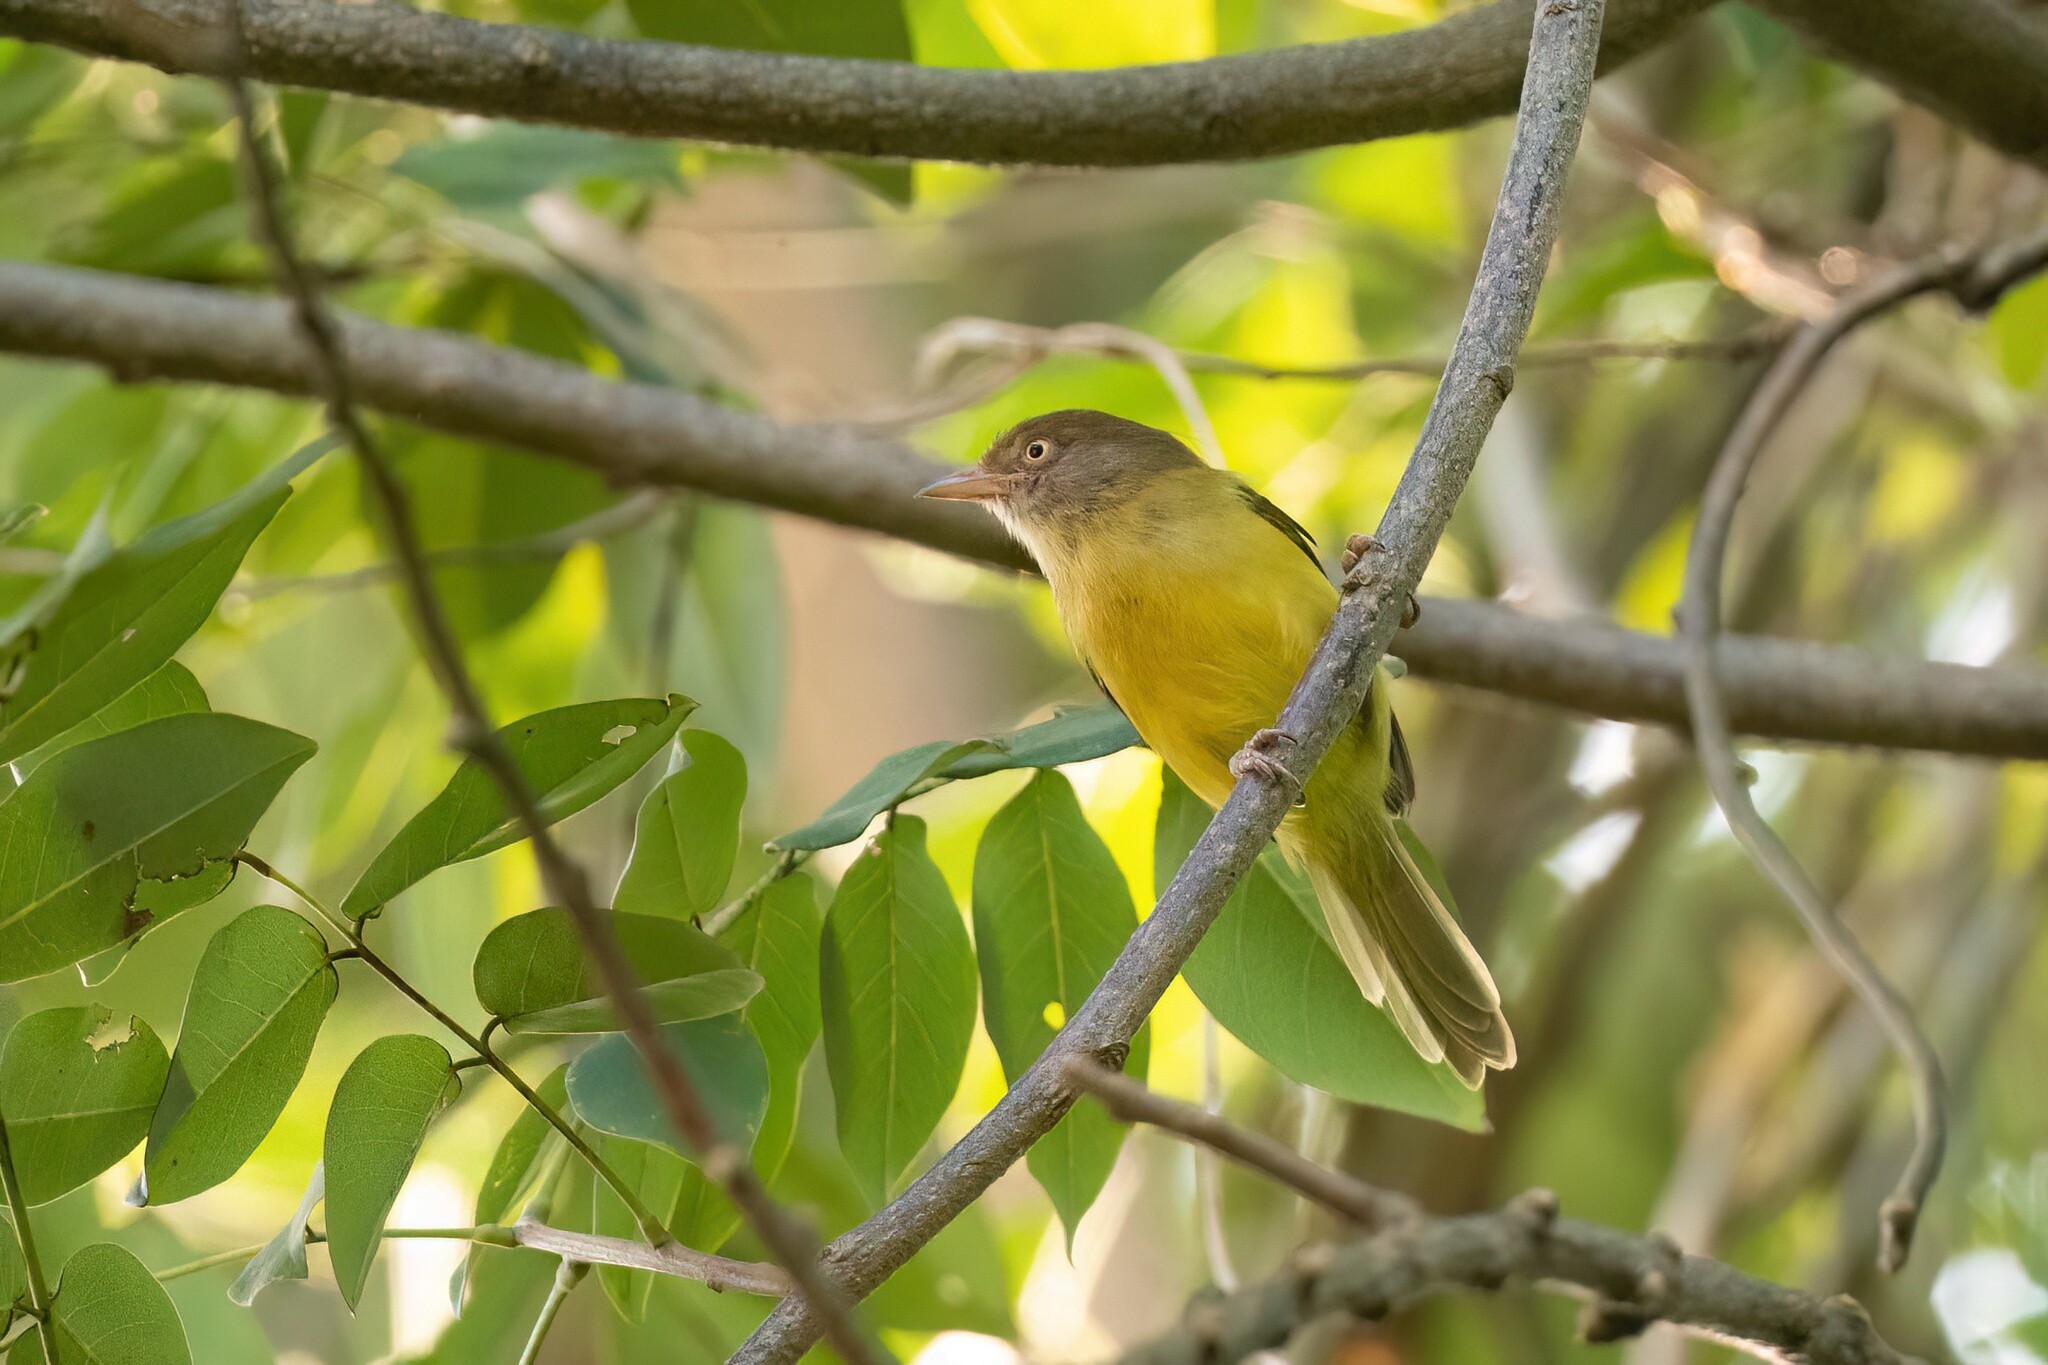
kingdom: Animalia
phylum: Chordata
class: Aves
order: Passeriformes
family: Vireonidae
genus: Hylophilus
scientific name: Hylophilus flavipes
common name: Scrub greenlet
